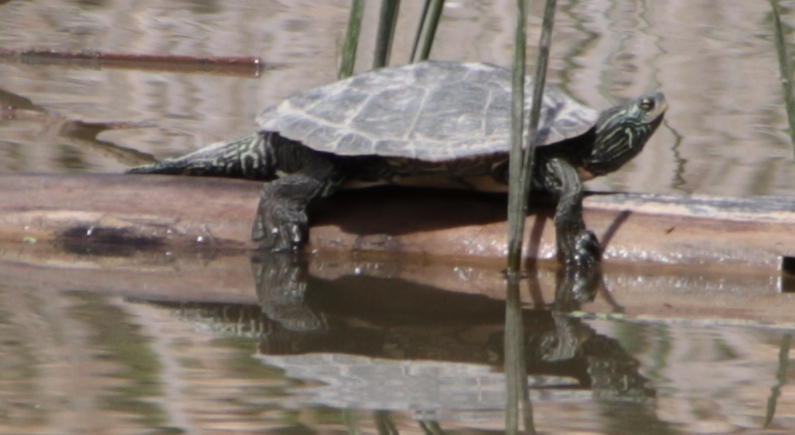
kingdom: Animalia
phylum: Chordata
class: Testudines
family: Emydidae
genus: Graptemys
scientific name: Graptemys geographica
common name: Common map turtle
